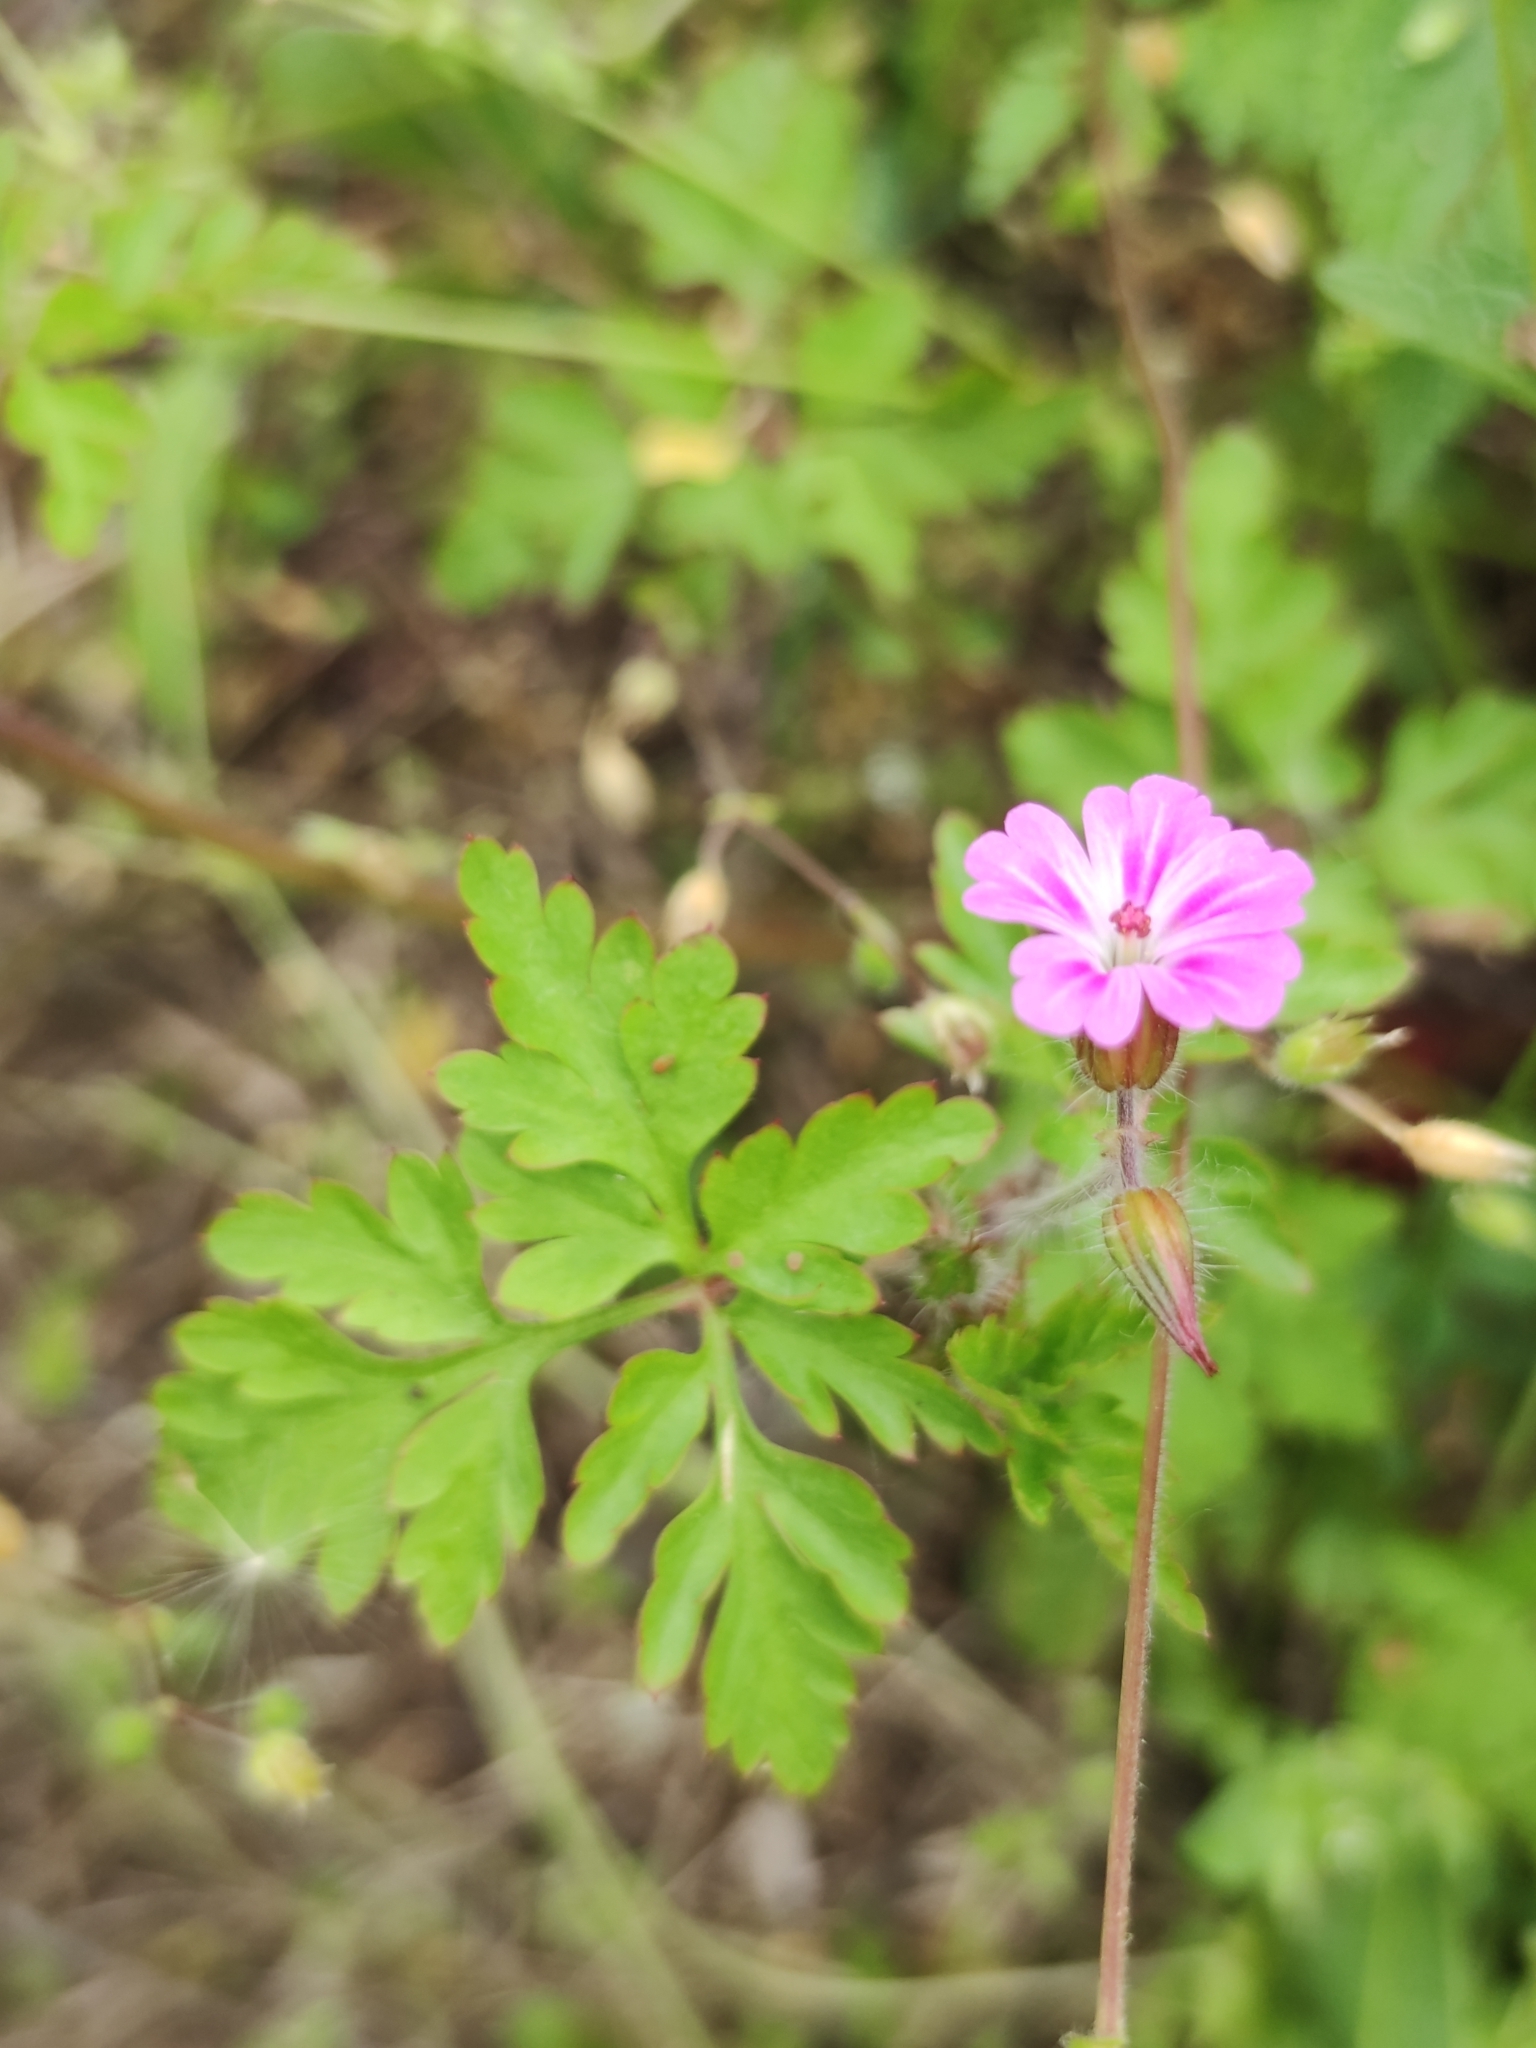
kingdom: Plantae
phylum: Tracheophyta
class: Magnoliopsida
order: Geraniales
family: Geraniaceae
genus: Geranium
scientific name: Geranium robertianum
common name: Herb-robert
